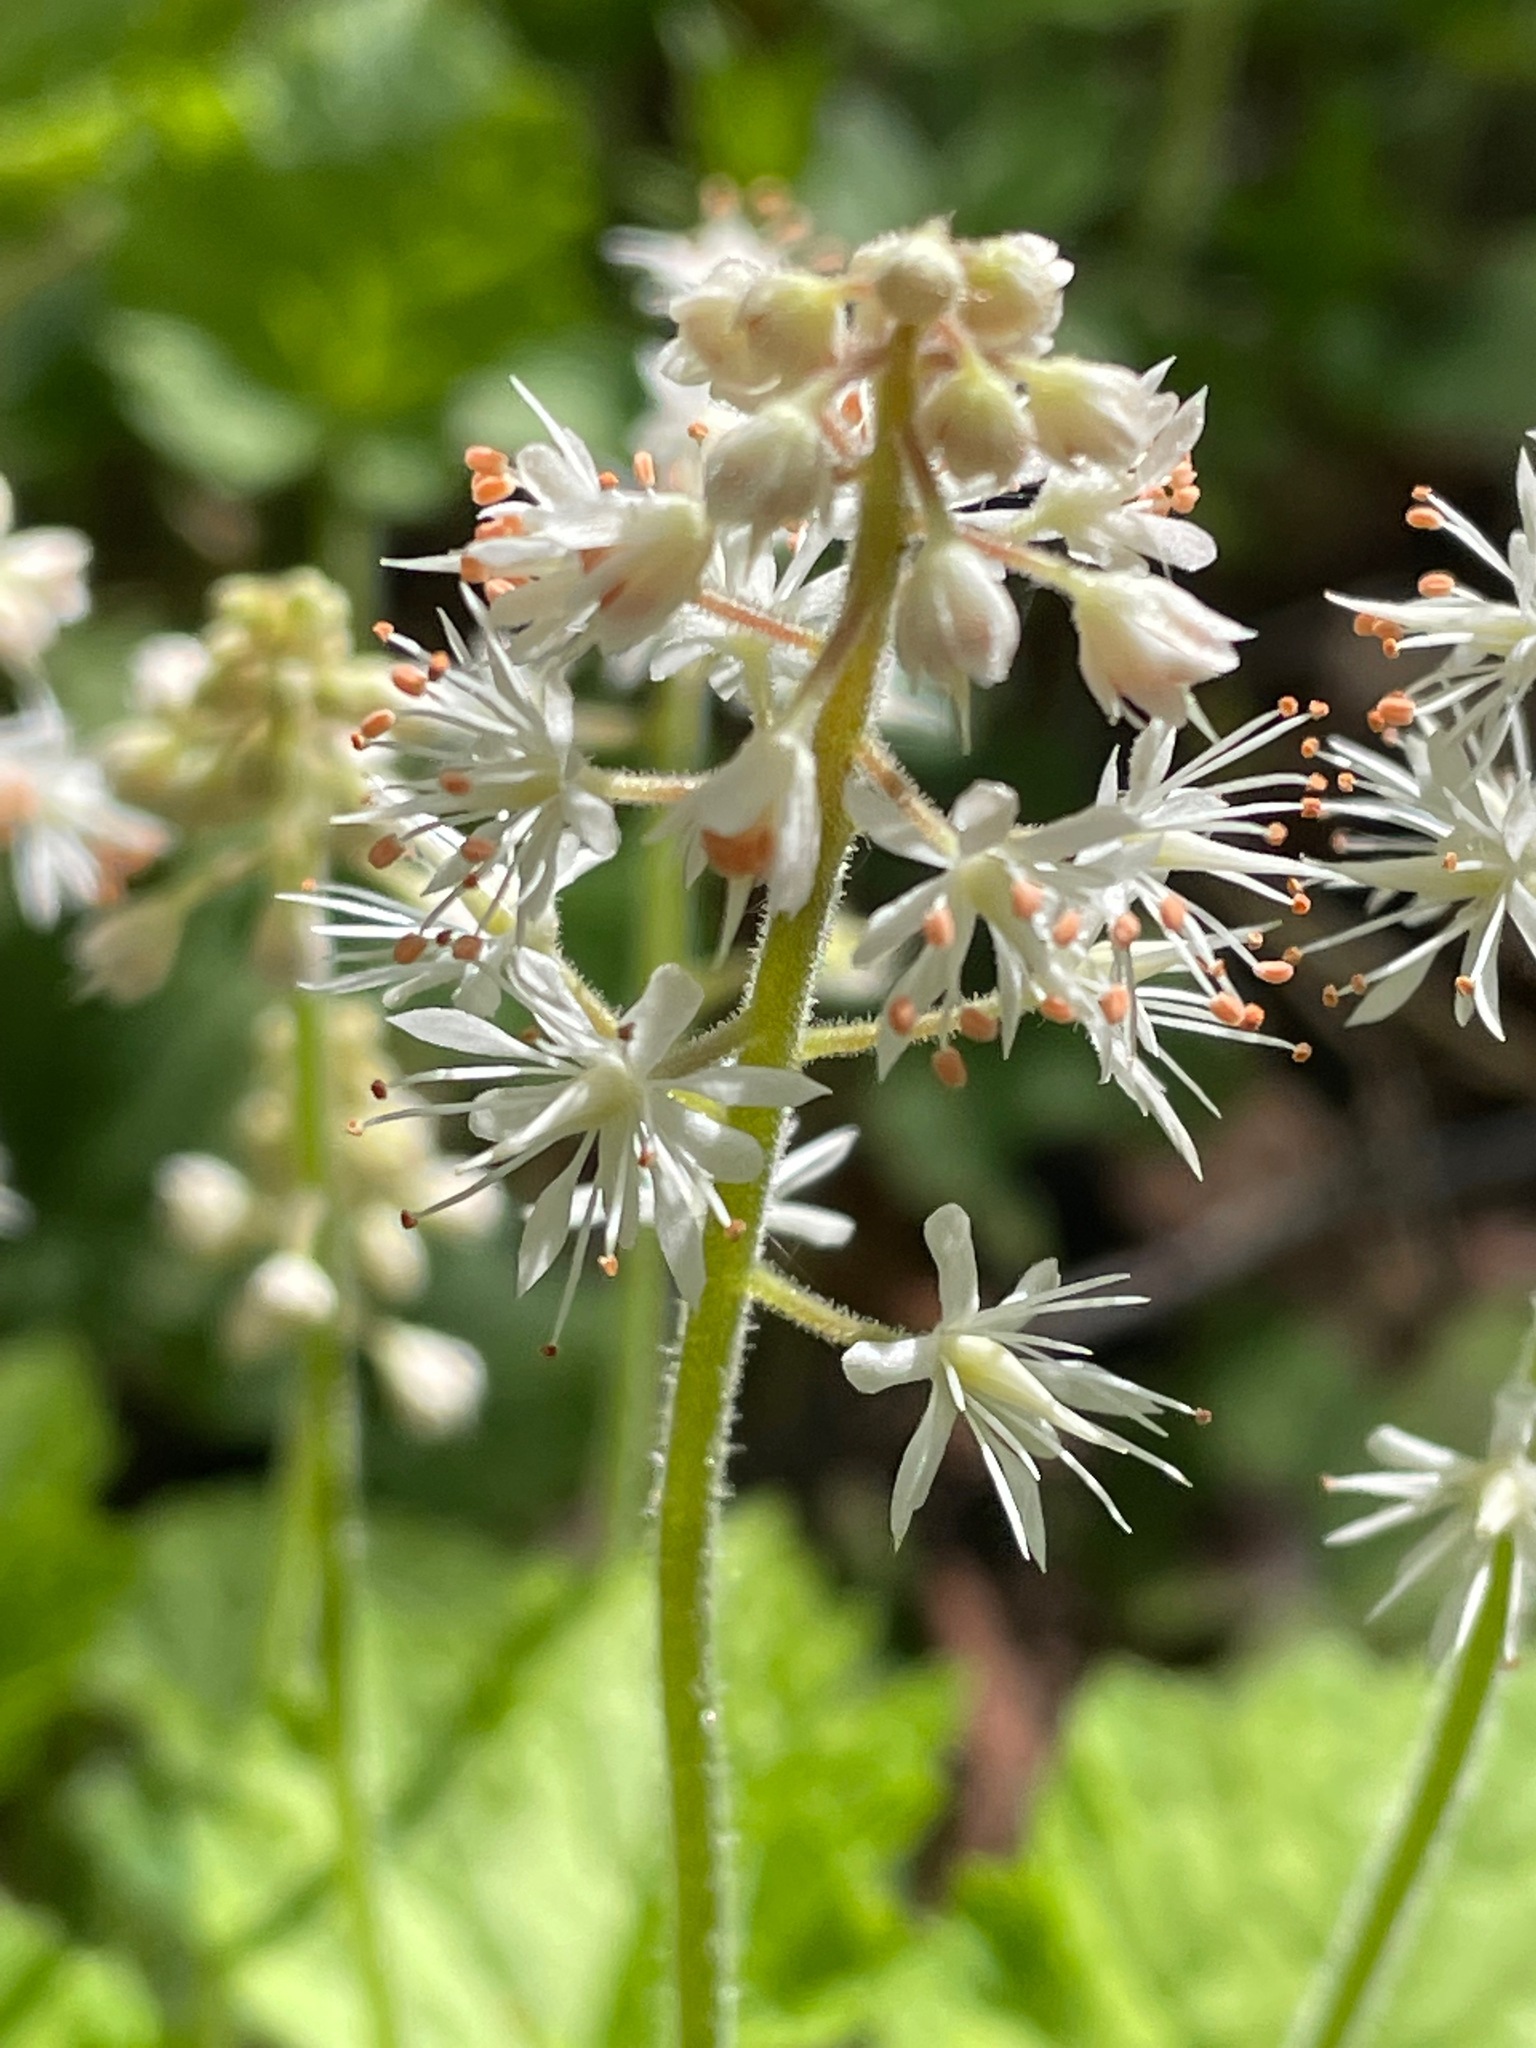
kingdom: Plantae
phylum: Tracheophyta
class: Magnoliopsida
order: Saxifragales
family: Saxifragaceae
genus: Tiarella
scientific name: Tiarella stolonifera
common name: Stoloniferous foamflower
